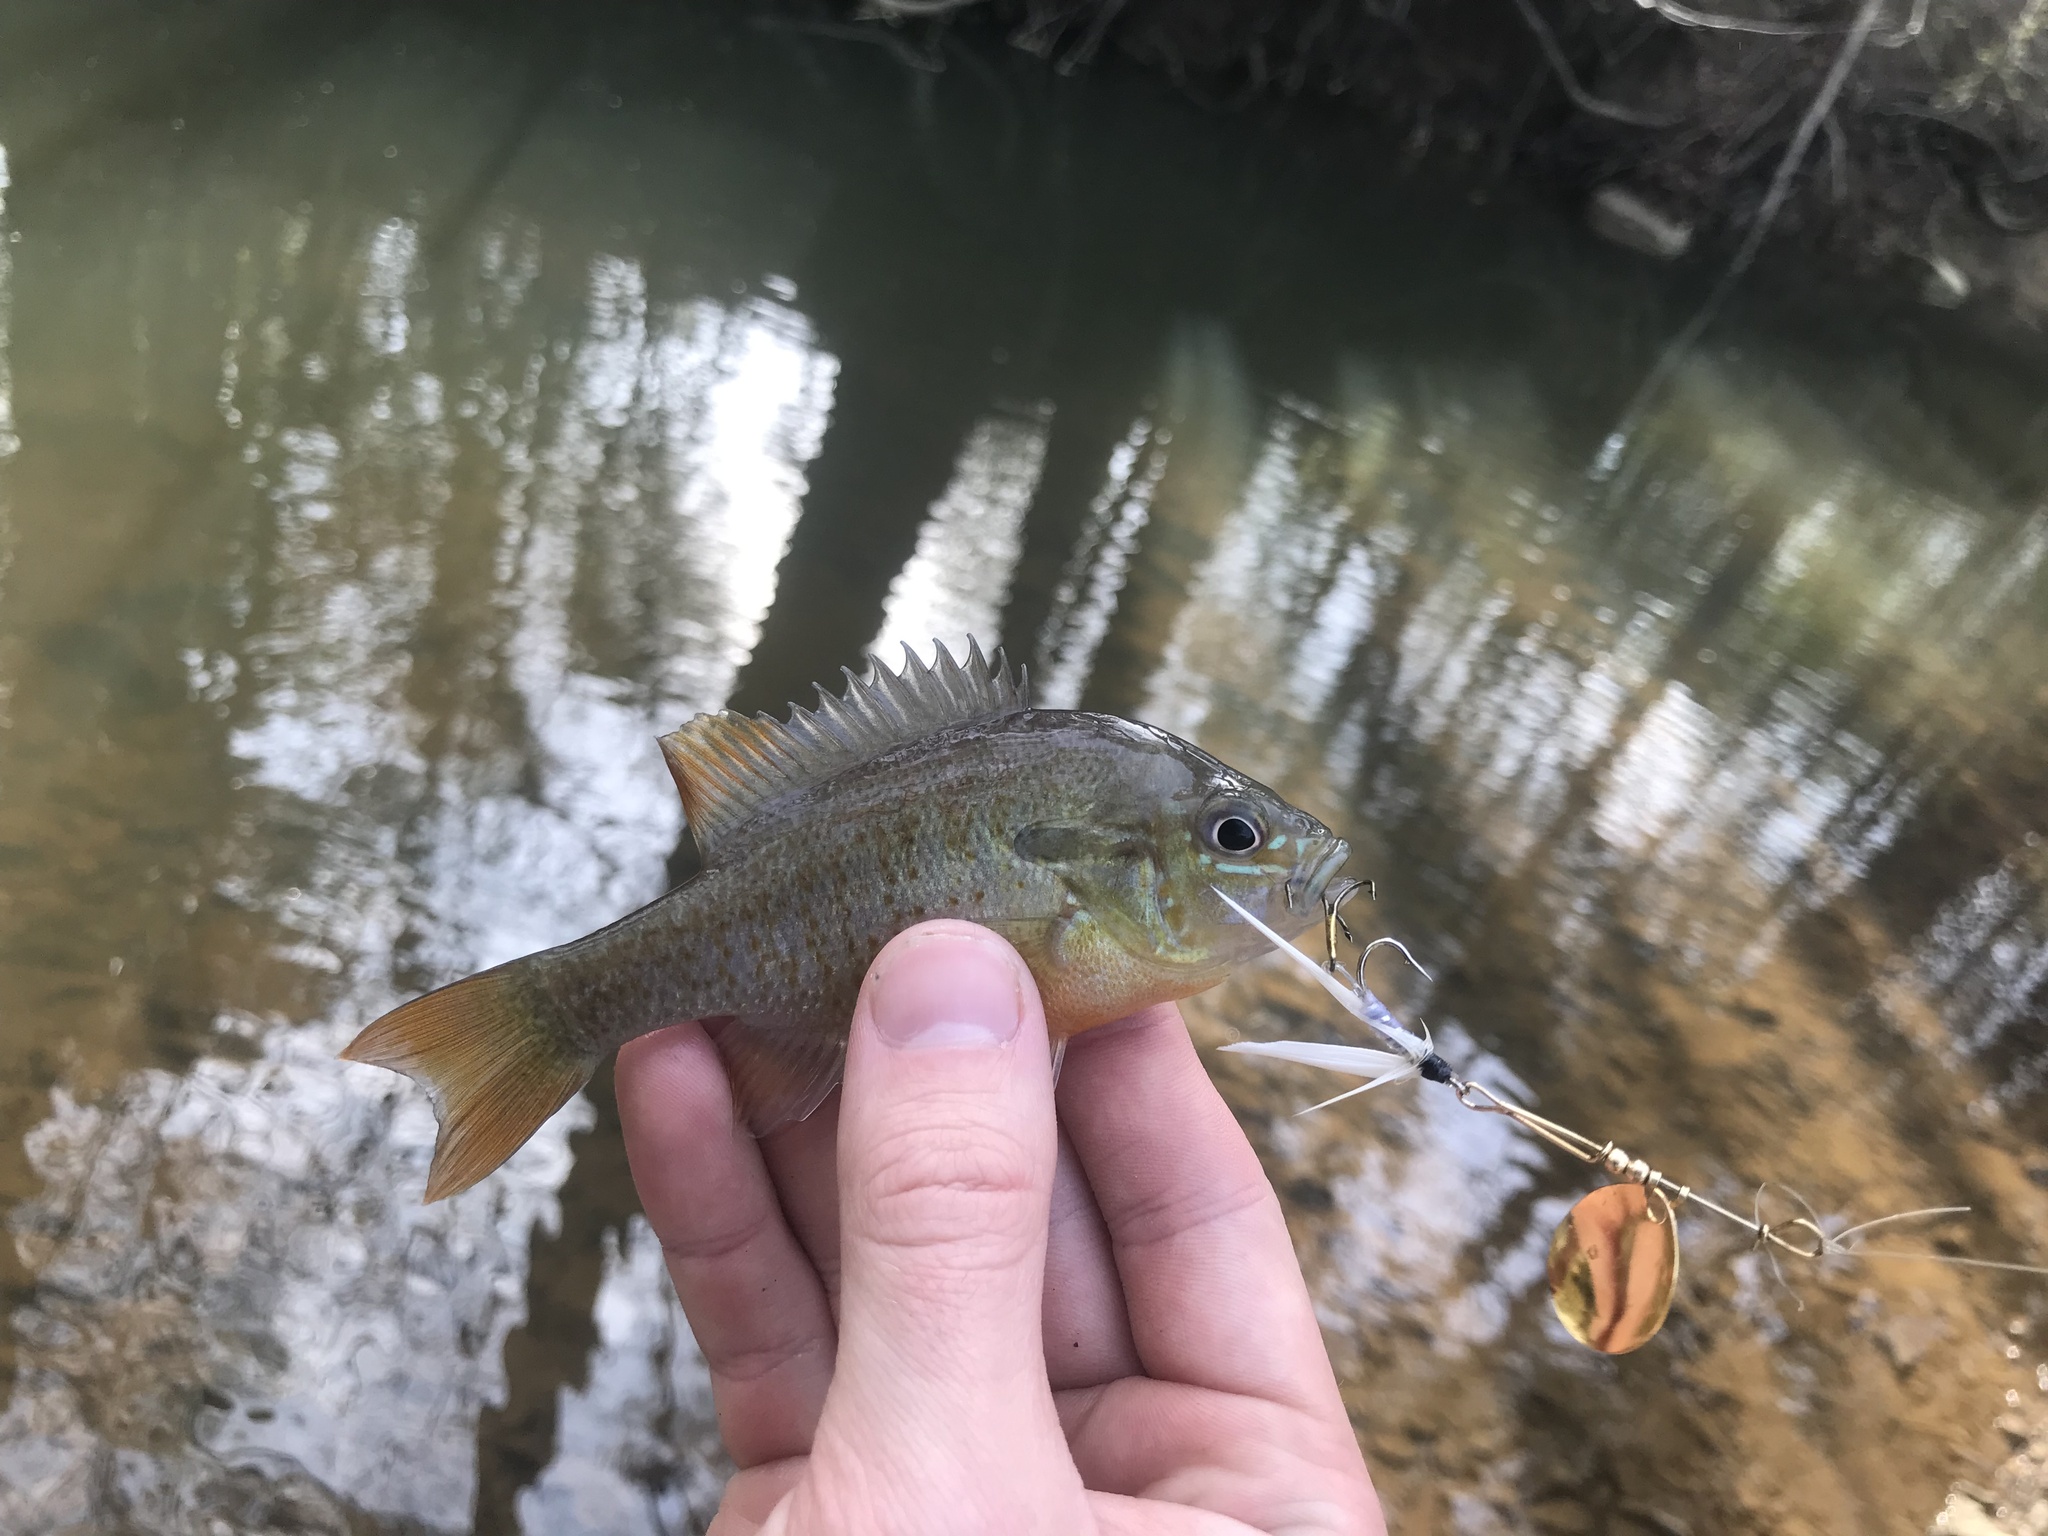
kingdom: Animalia
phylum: Chordata
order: Perciformes
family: Centrarchidae
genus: Lepomis
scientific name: Lepomis auritus
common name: Redbreast sunfish
